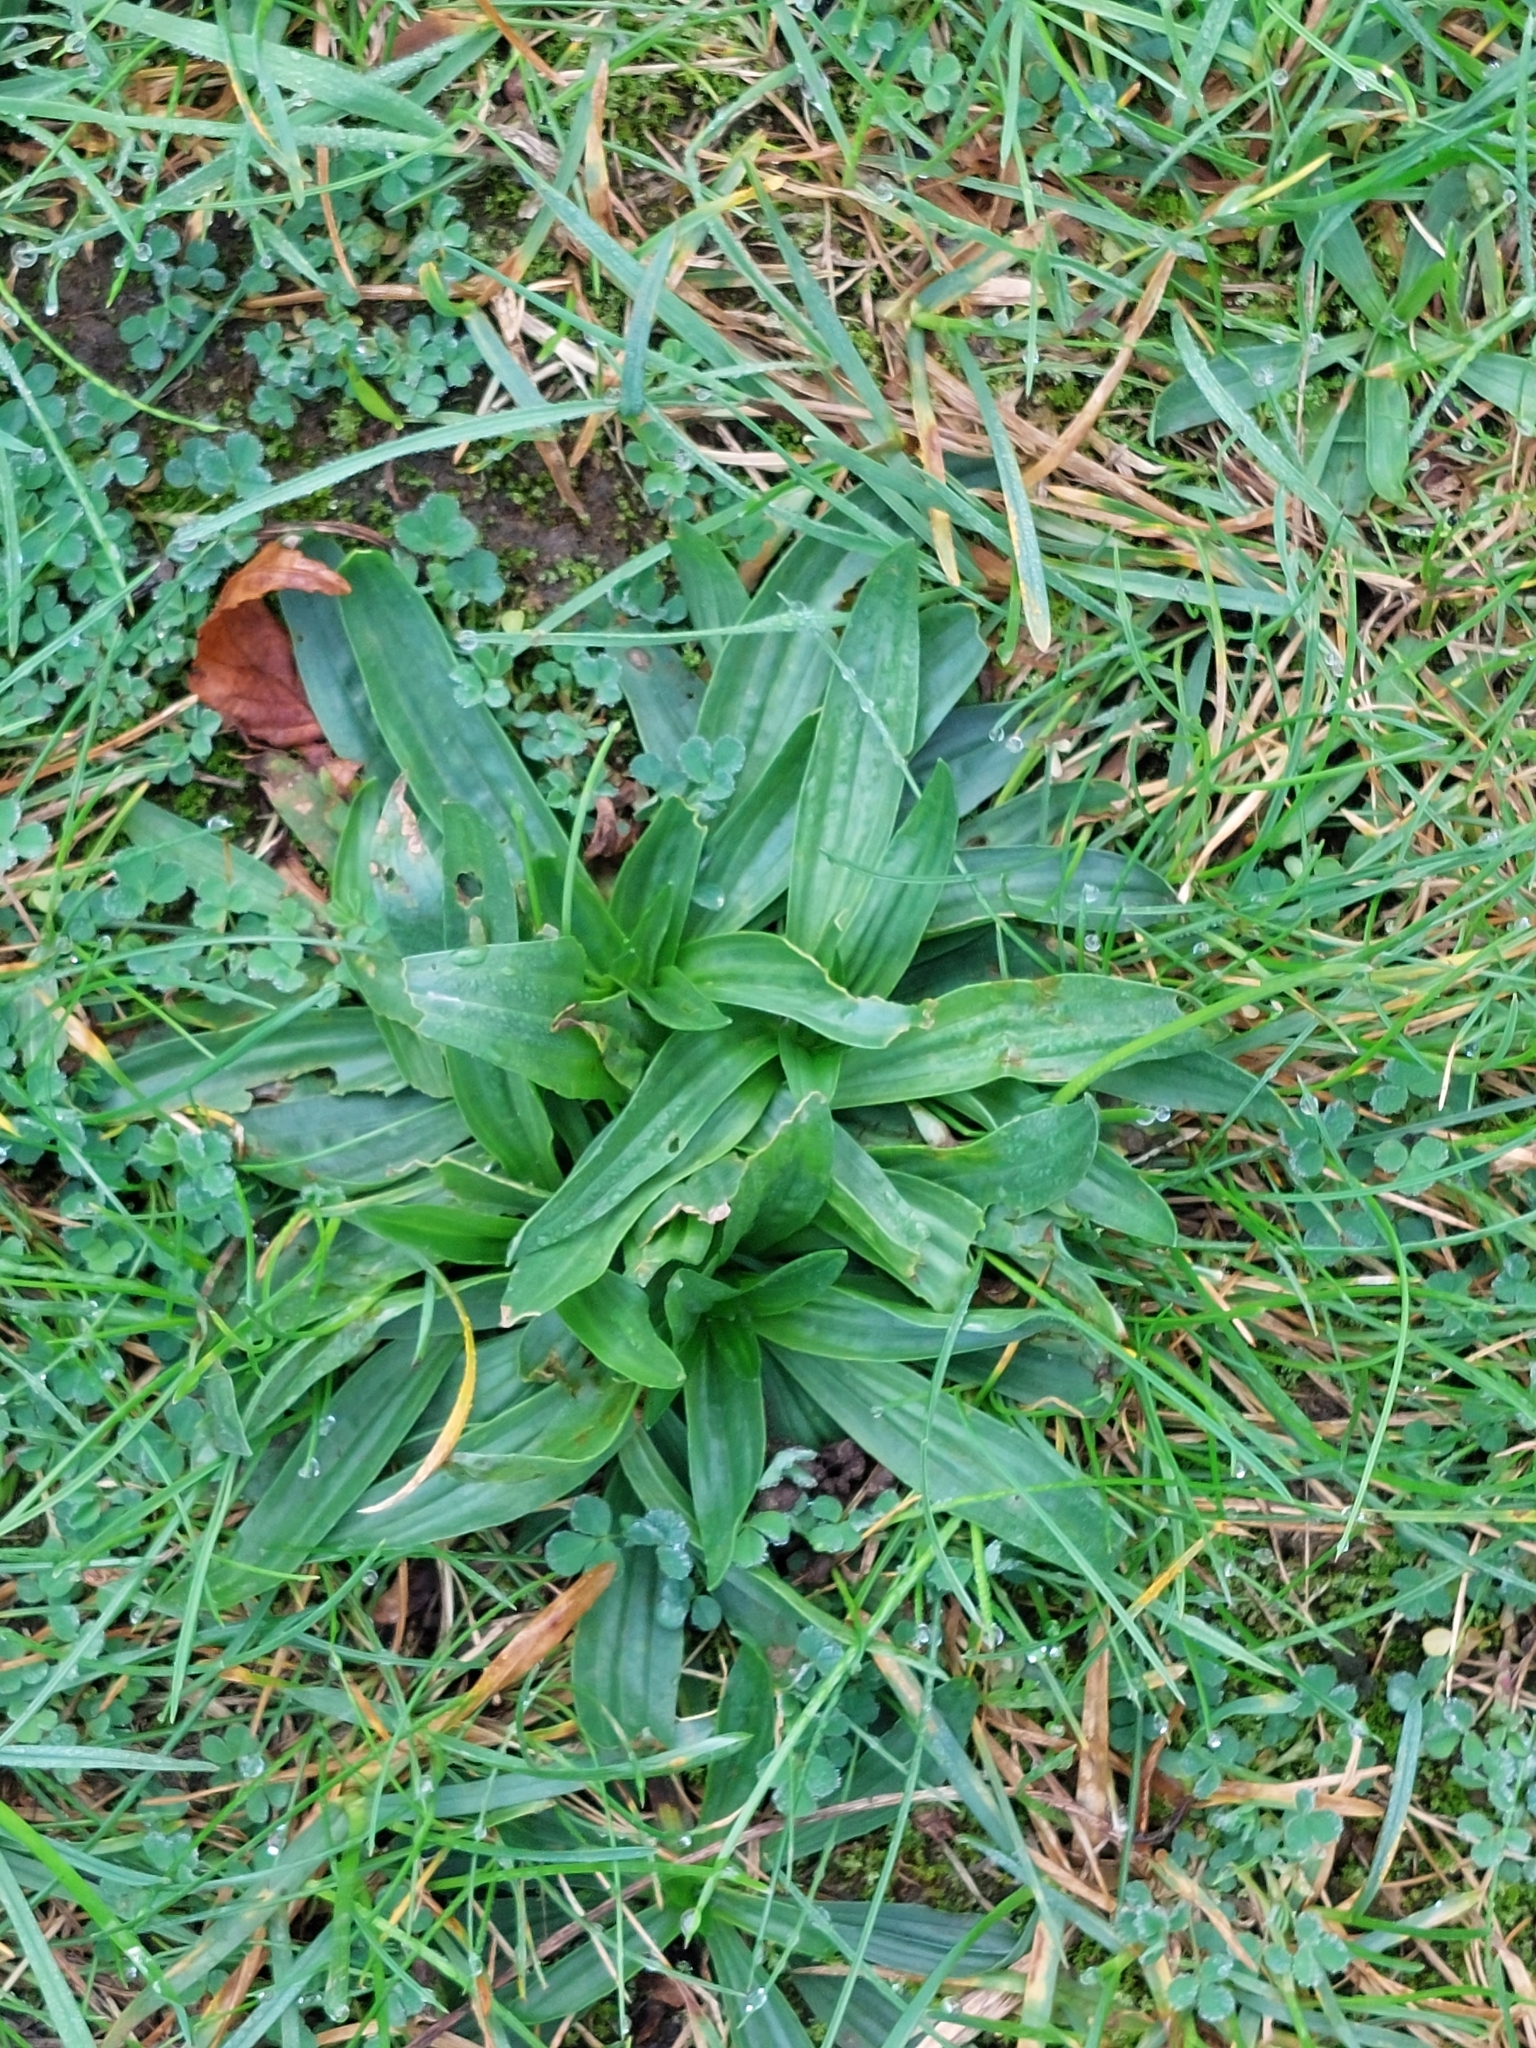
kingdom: Plantae
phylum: Tracheophyta
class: Magnoliopsida
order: Lamiales
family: Plantaginaceae
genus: Plantago
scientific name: Plantago lanceolata
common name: Ribwort plantain
